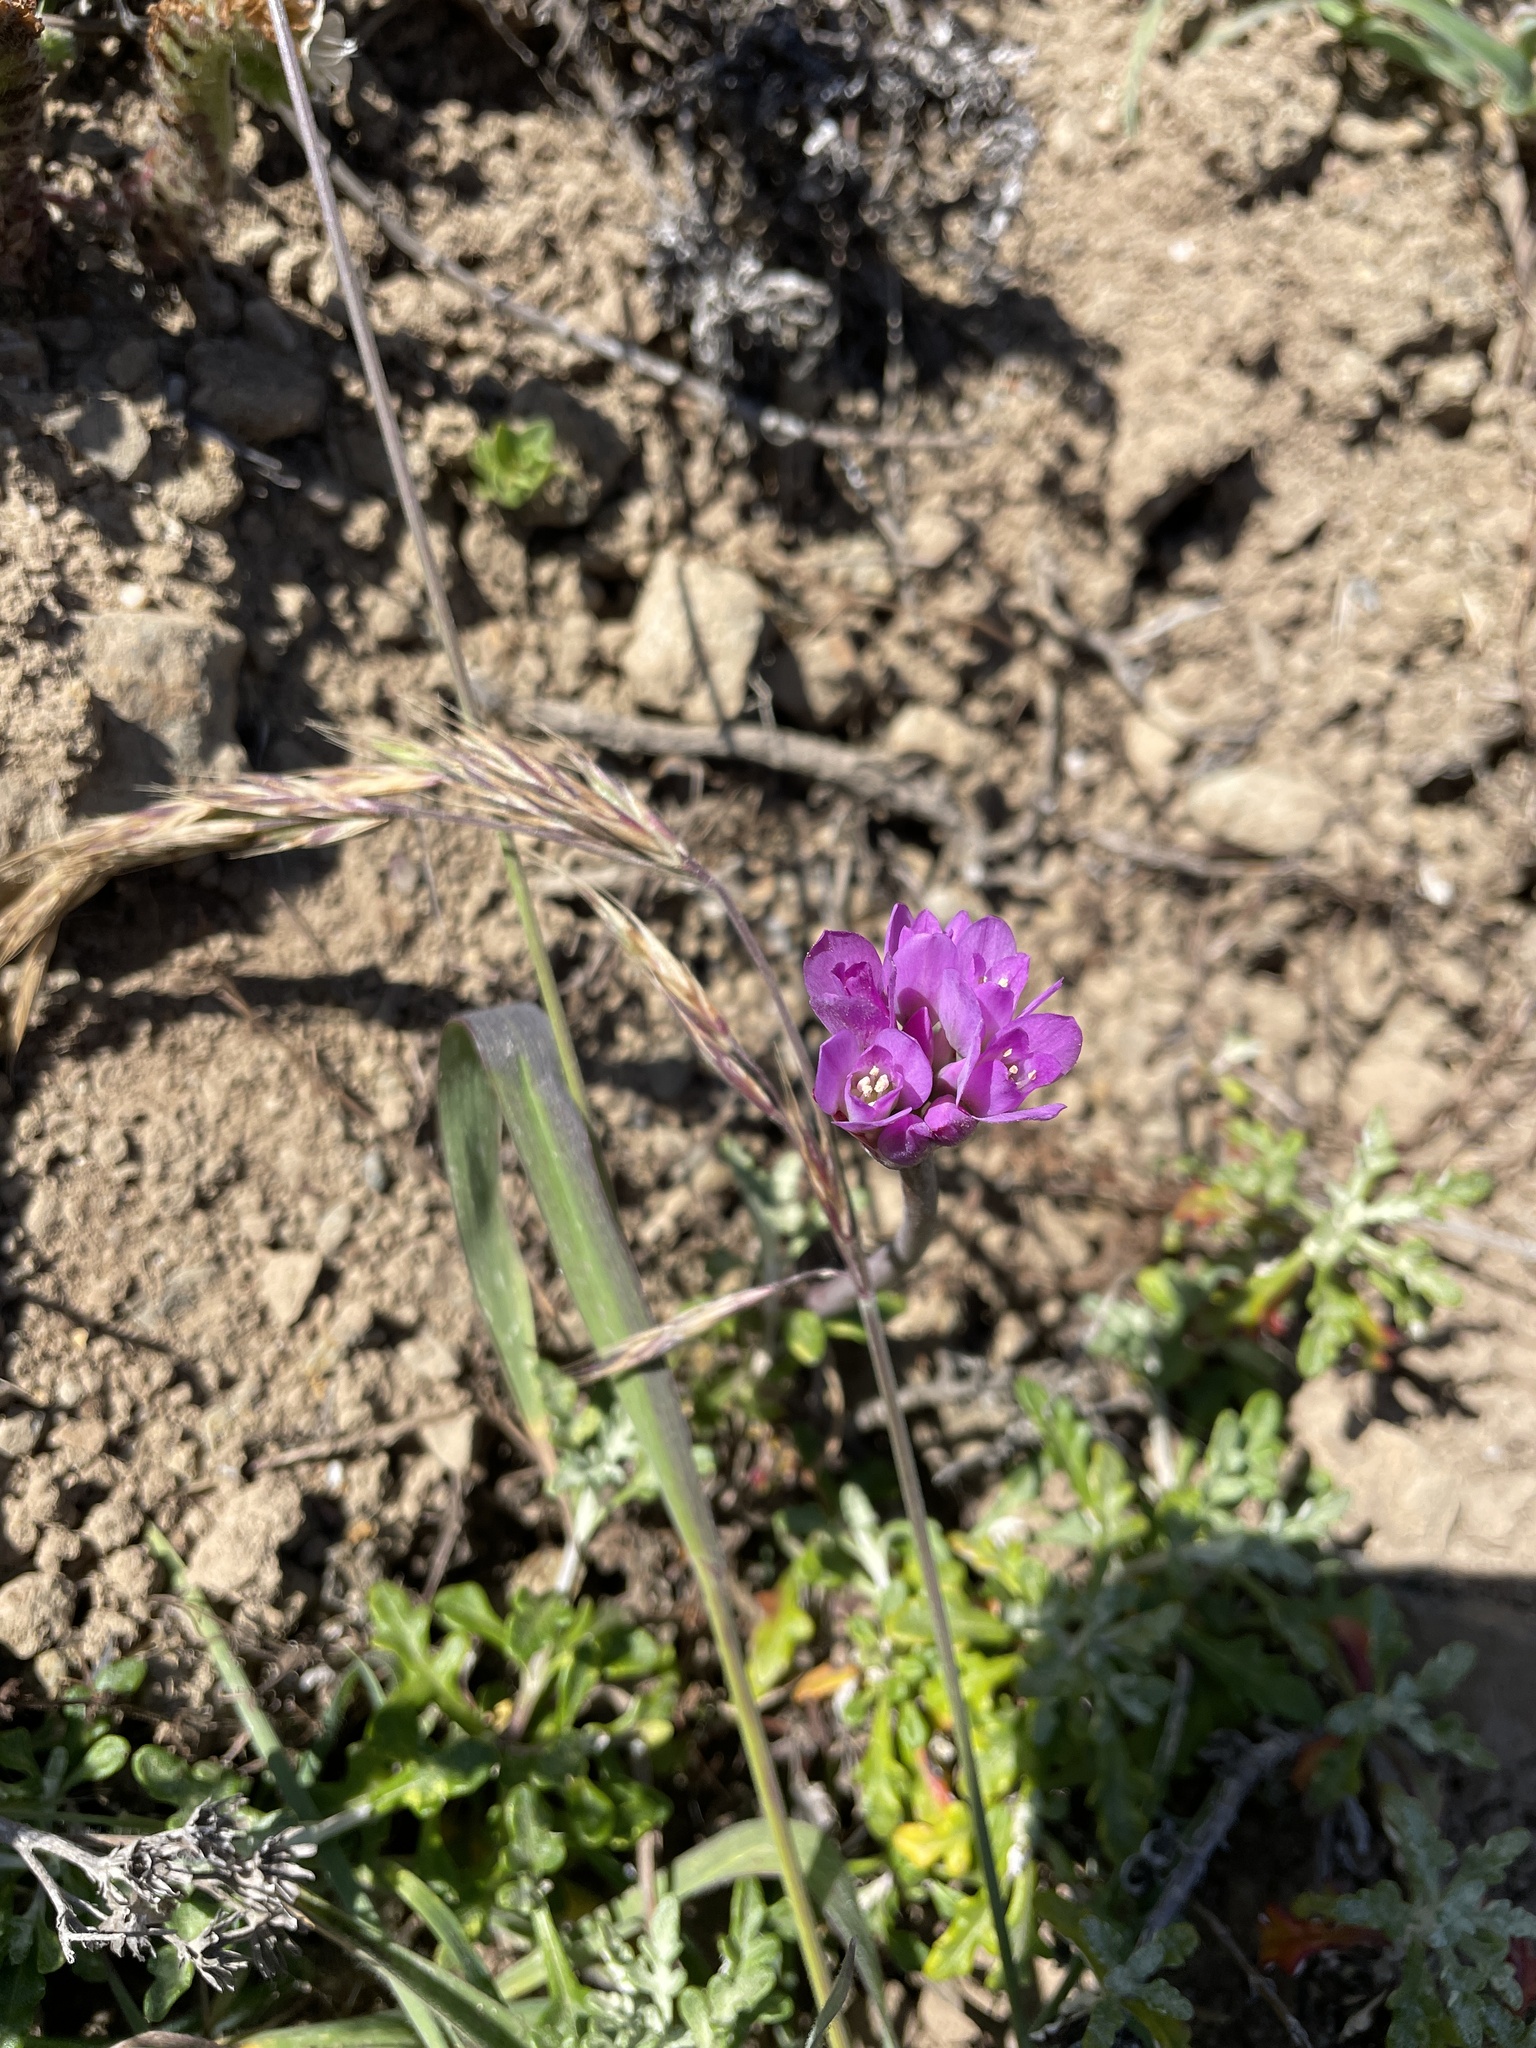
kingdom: Plantae
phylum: Tracheophyta
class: Liliopsida
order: Asparagales
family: Amaryllidaceae
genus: Allium
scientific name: Allium dichlamydeum
